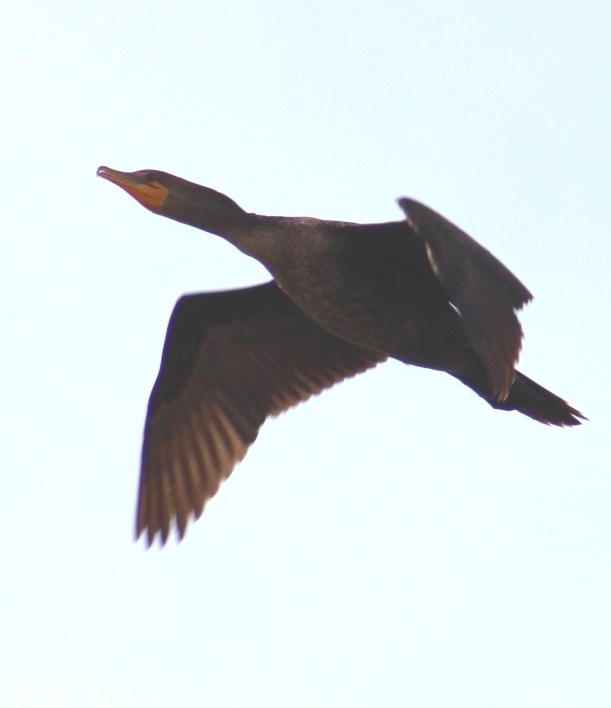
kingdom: Animalia
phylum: Chordata
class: Aves
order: Suliformes
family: Phalacrocoracidae
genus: Phalacrocorax
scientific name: Phalacrocorax auritus
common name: Double-crested cormorant
